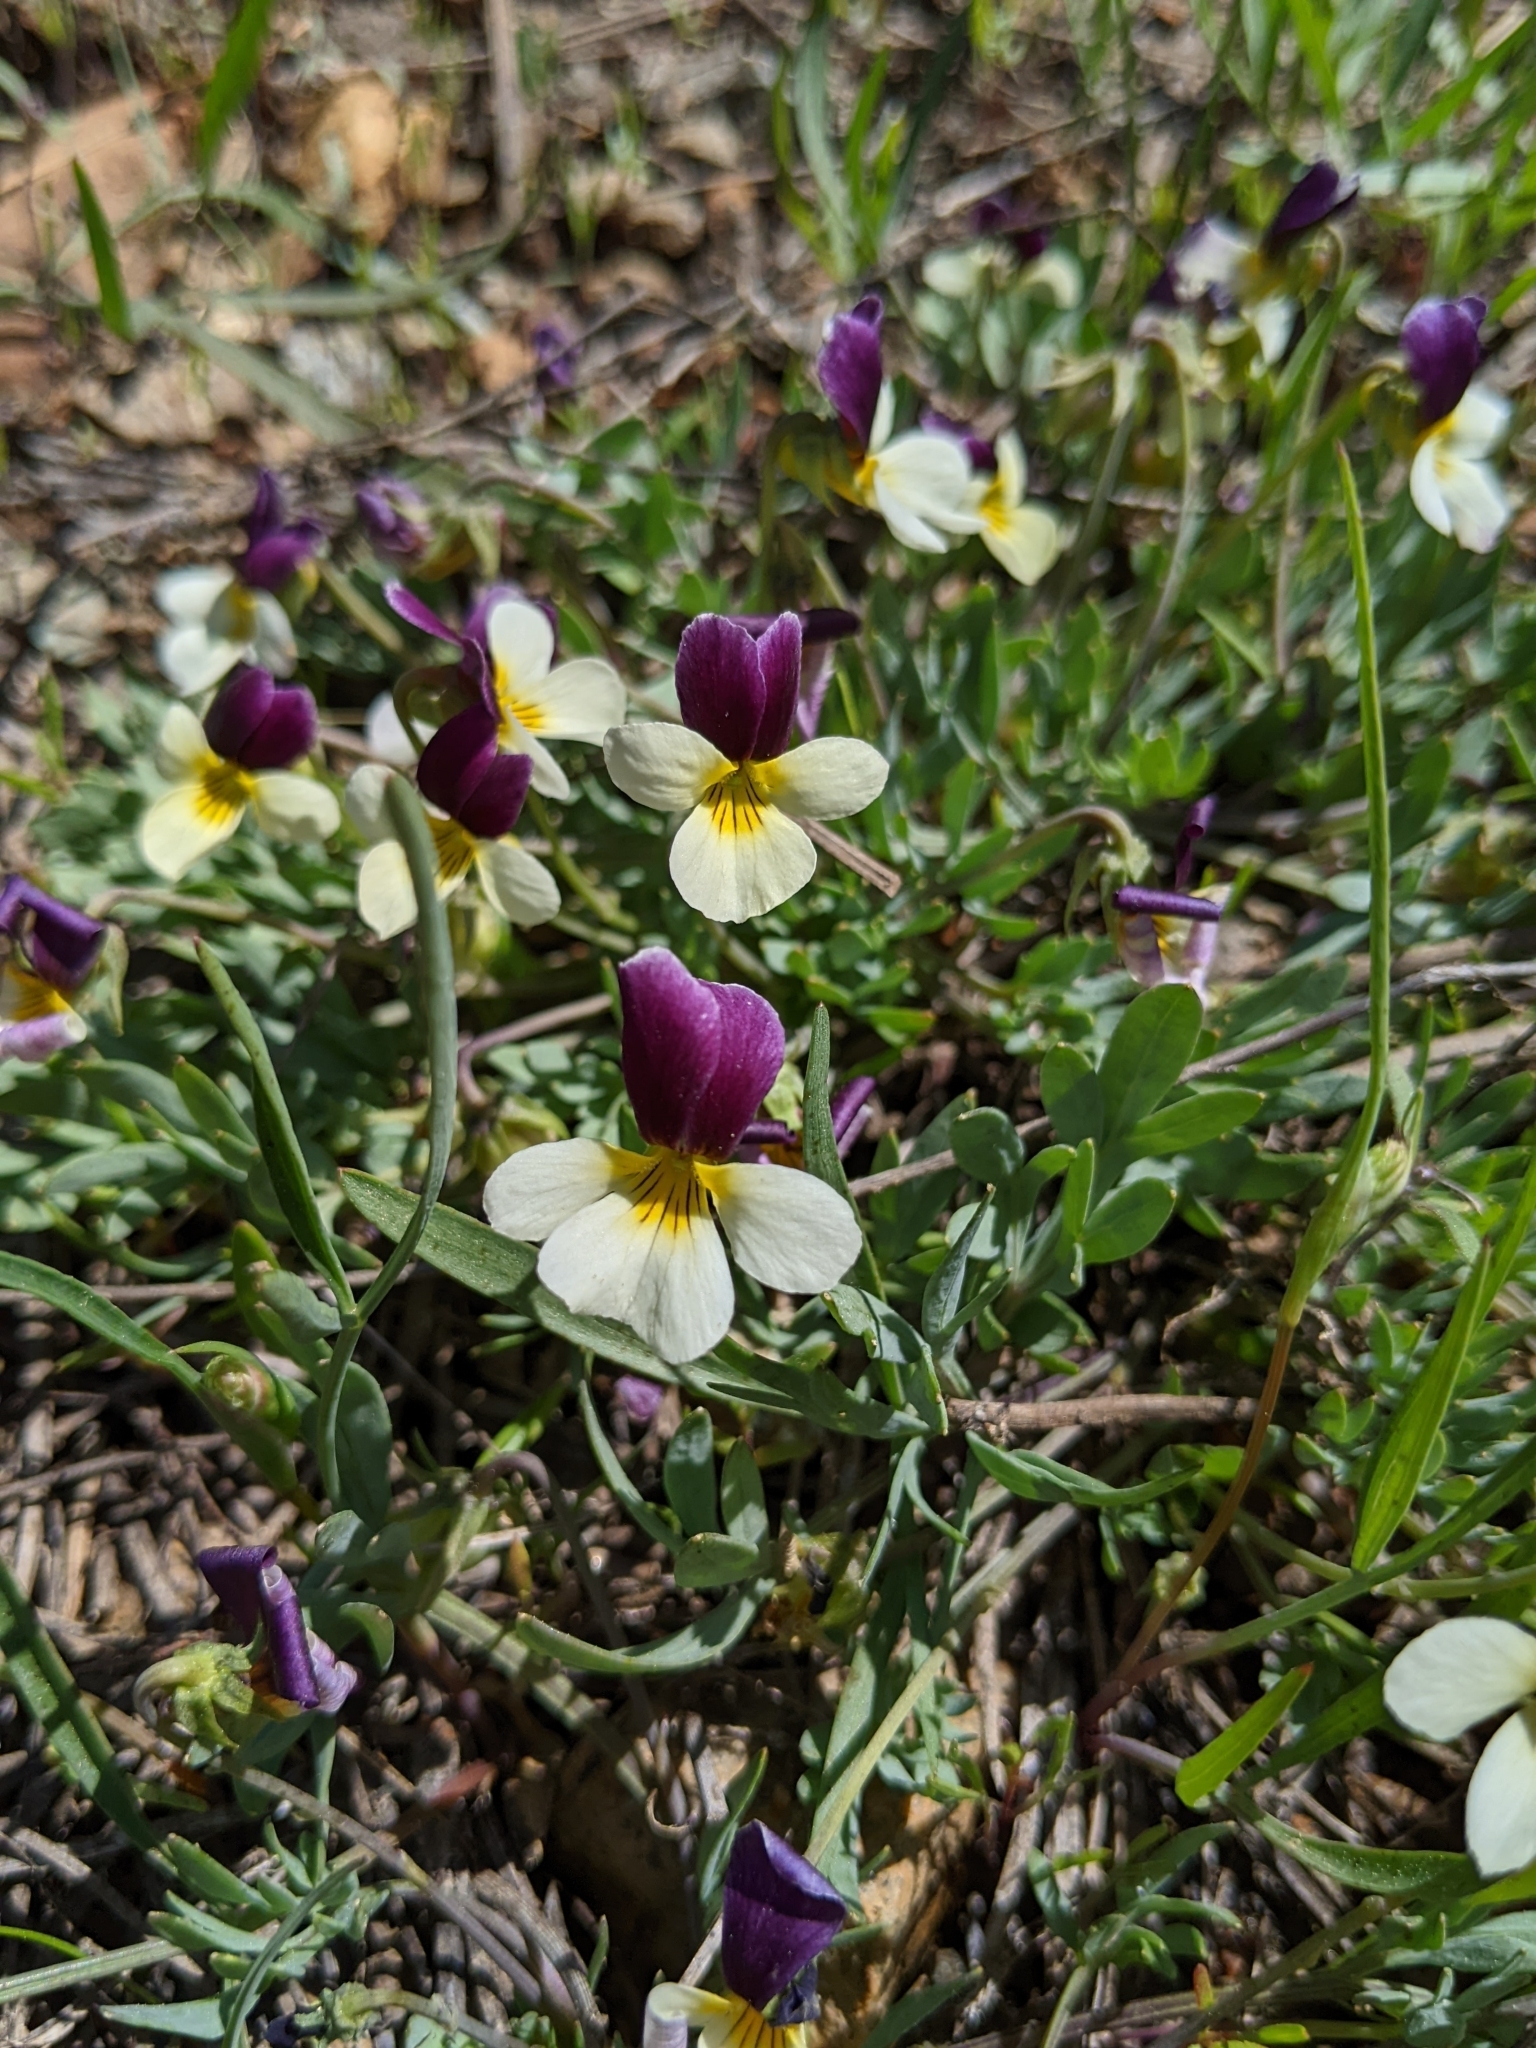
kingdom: Plantae
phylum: Tracheophyta
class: Magnoliopsida
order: Malpighiales
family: Violaceae
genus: Viola
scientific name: Viola hallii
